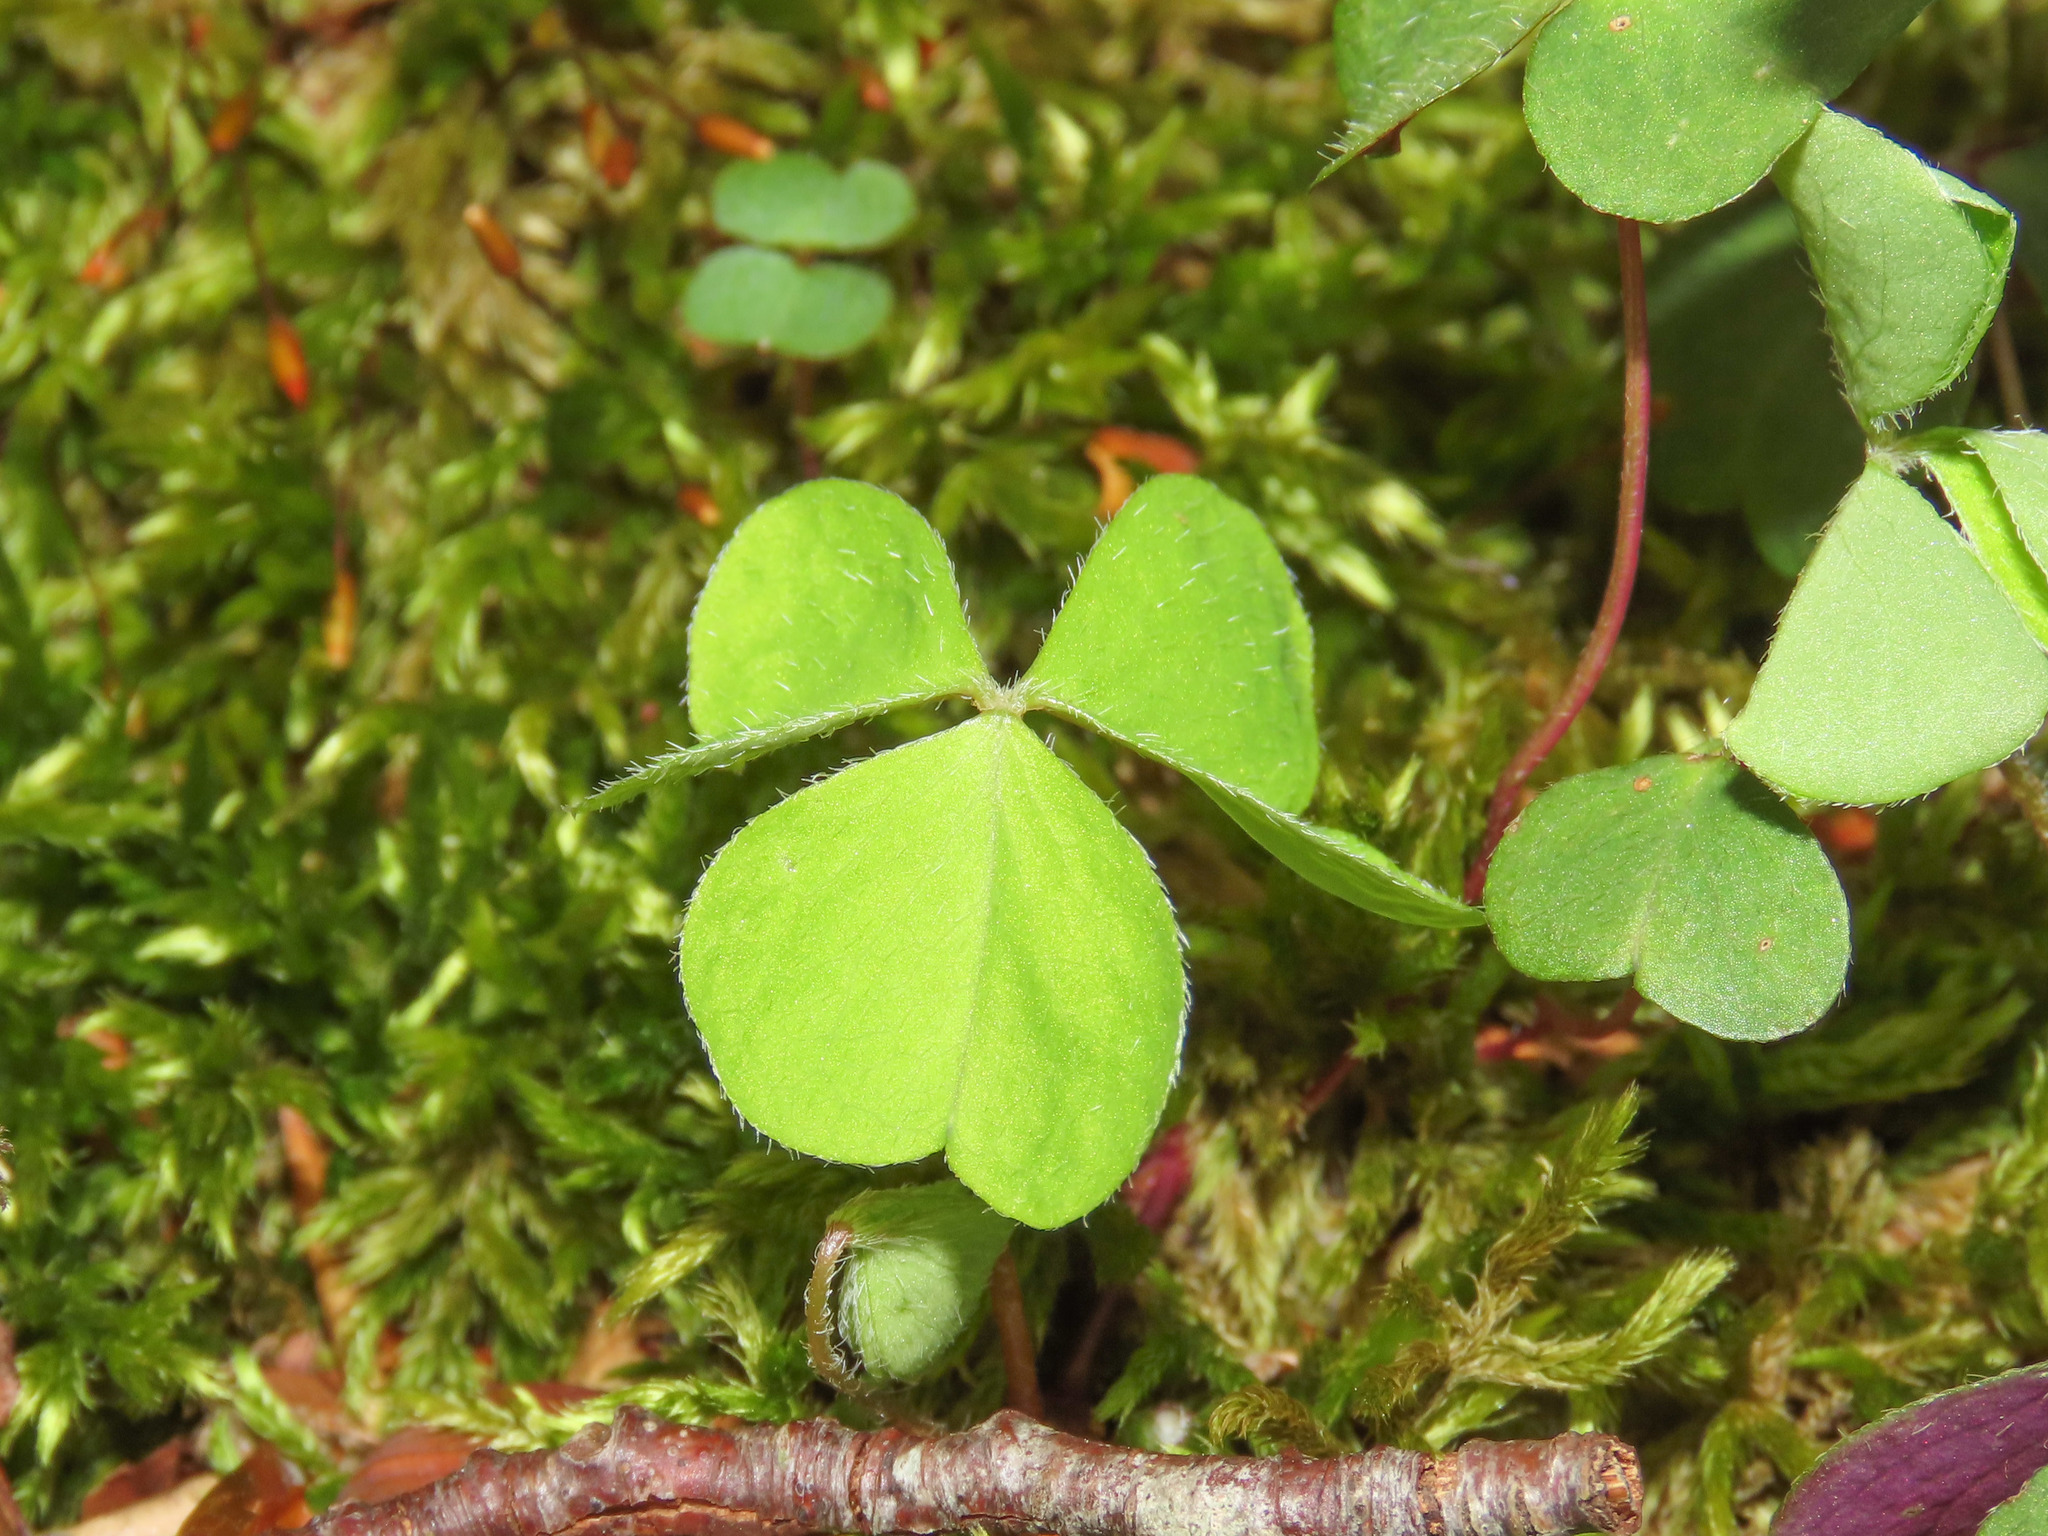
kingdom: Plantae
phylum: Tracheophyta
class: Magnoliopsida
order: Oxalidales
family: Oxalidaceae
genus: Oxalis
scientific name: Oxalis acetosella
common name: Wood-sorrel
